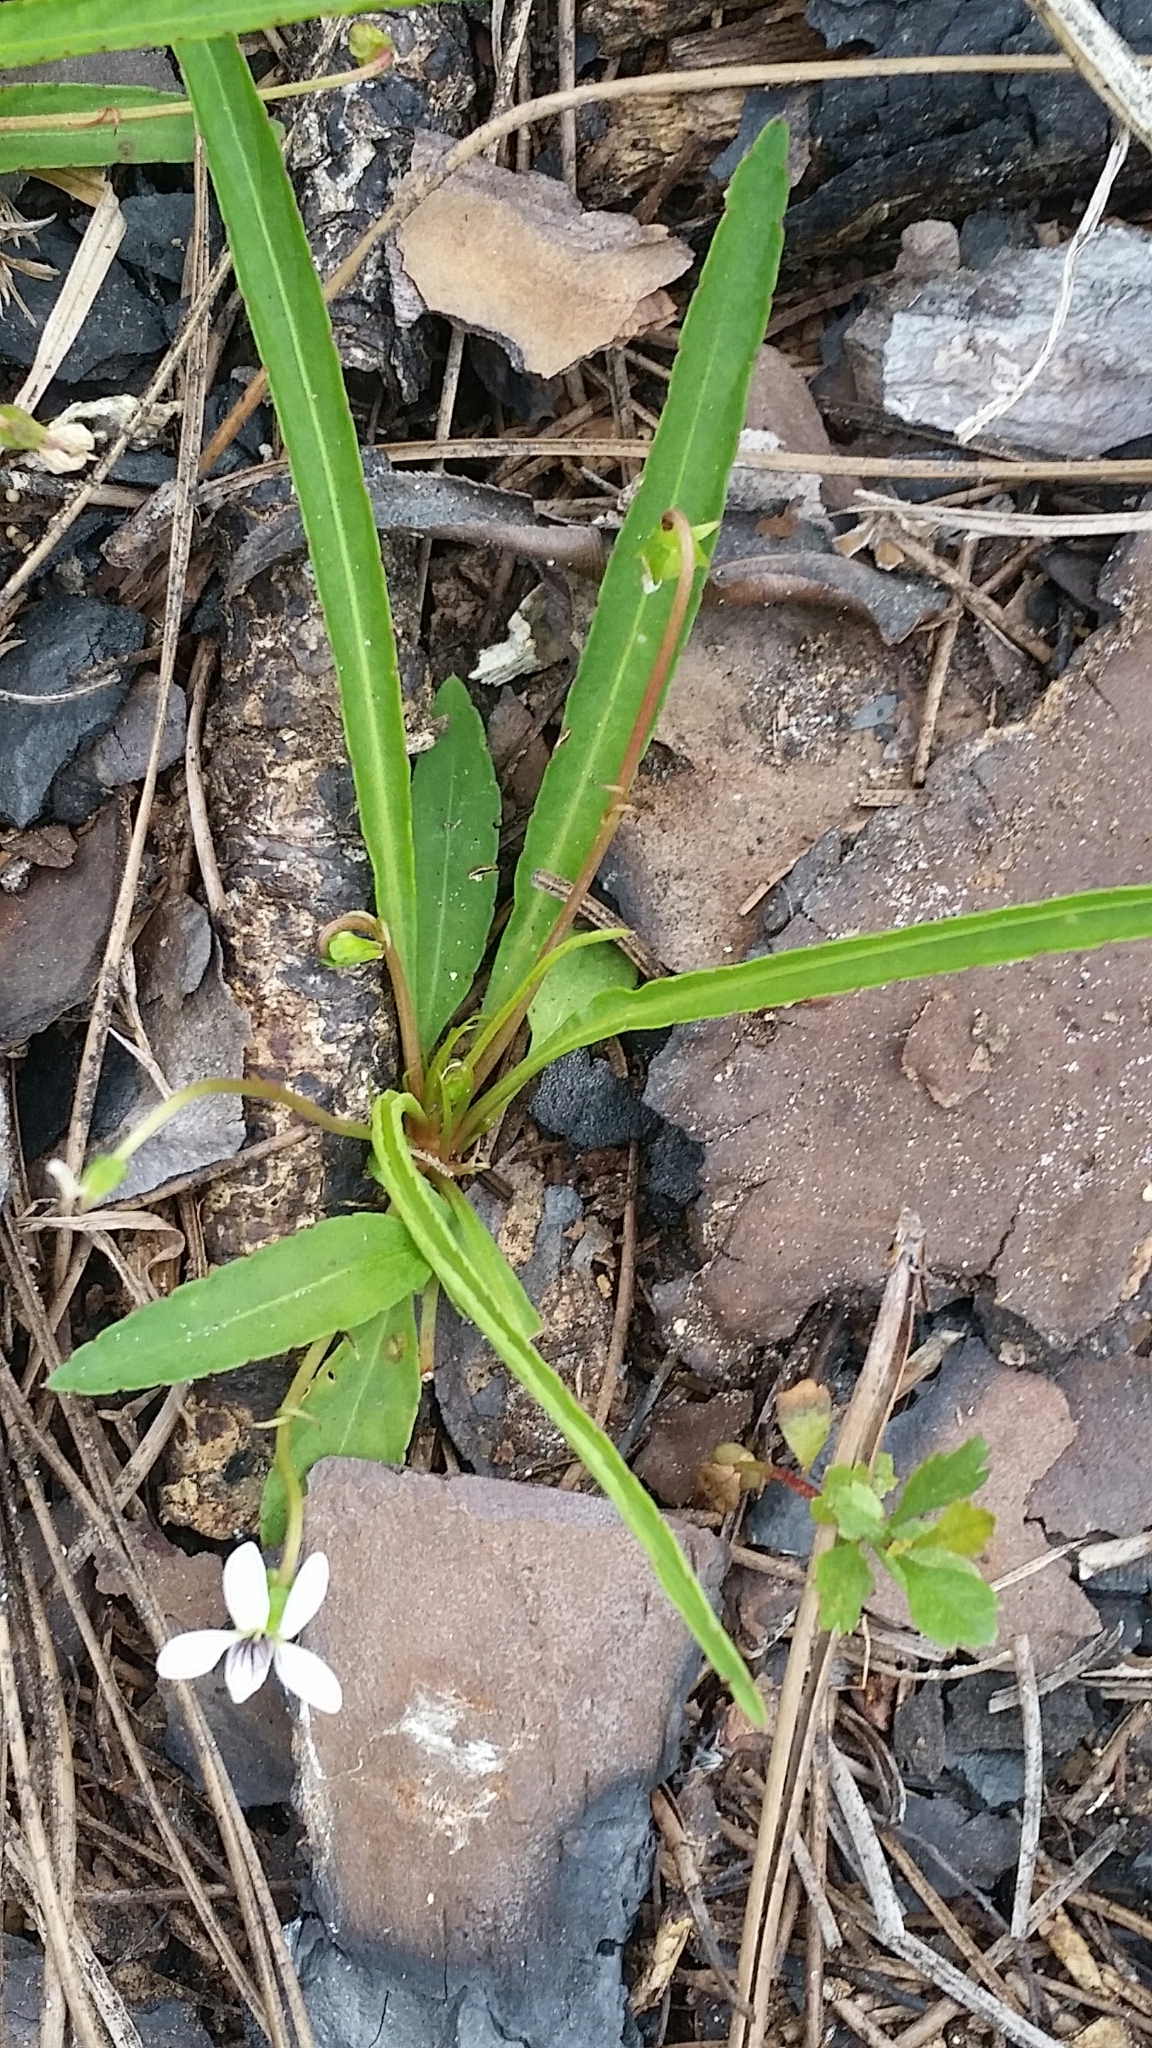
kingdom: Plantae
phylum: Tracheophyta
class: Magnoliopsida
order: Malpighiales
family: Violaceae
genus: Viola
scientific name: Viola lanceolata
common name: Bog white violet
